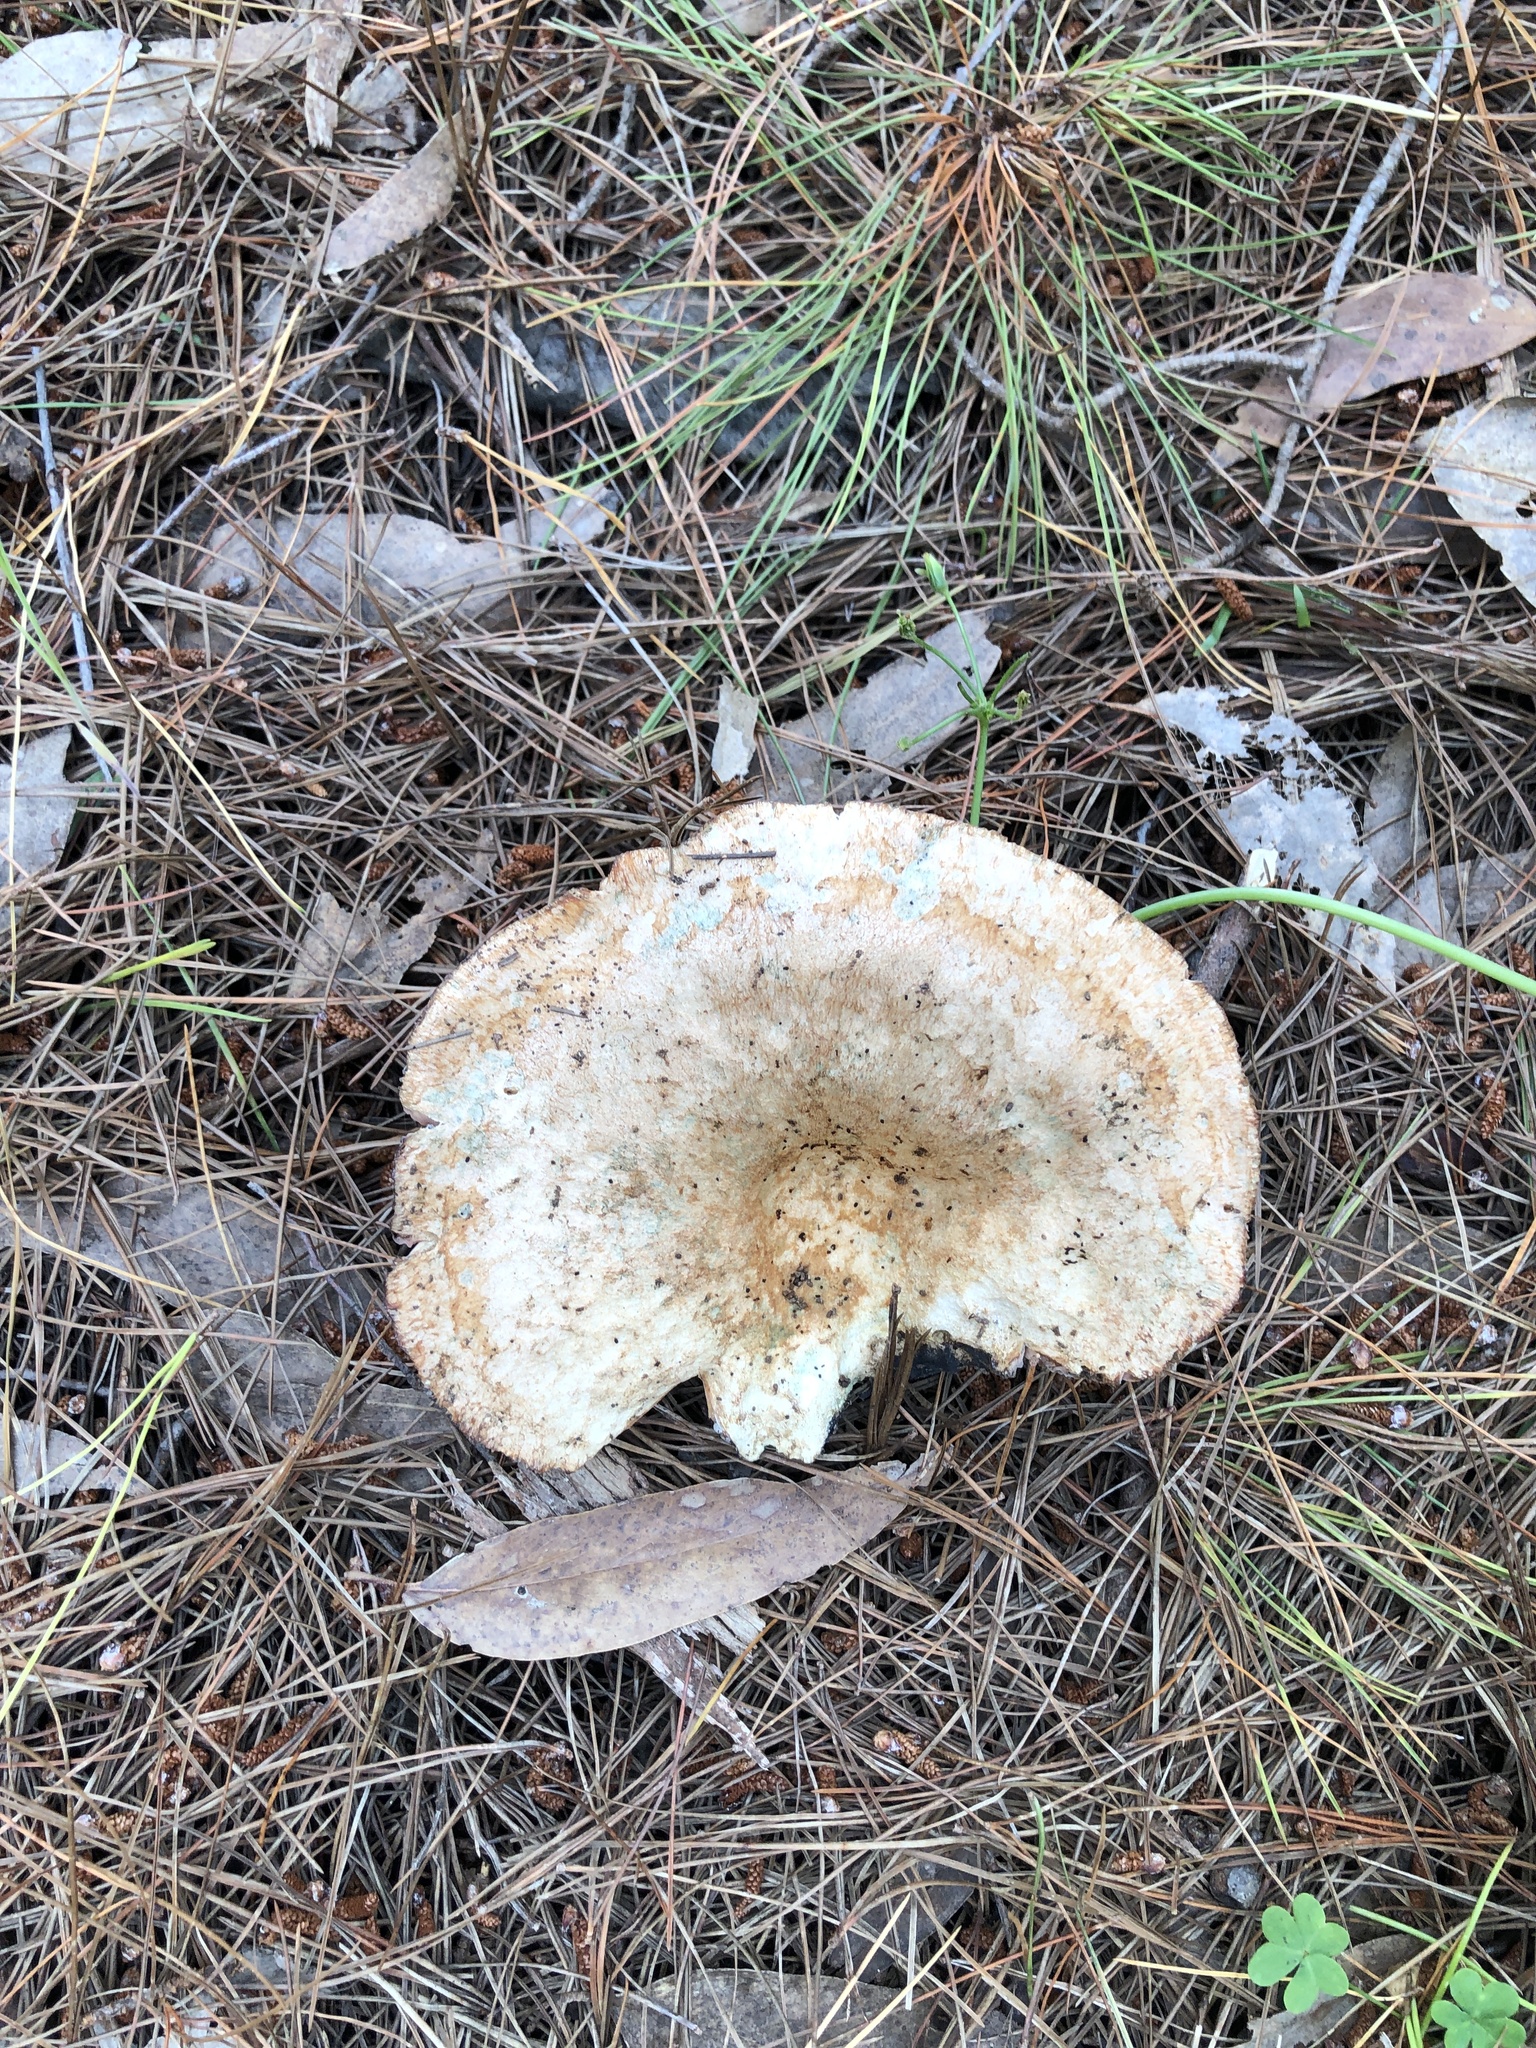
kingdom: Fungi
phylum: Basidiomycota
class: Agaricomycetes
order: Russulales
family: Russulaceae
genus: Lactarius
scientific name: Lactarius deliciosus
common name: Saffron milk-cap
